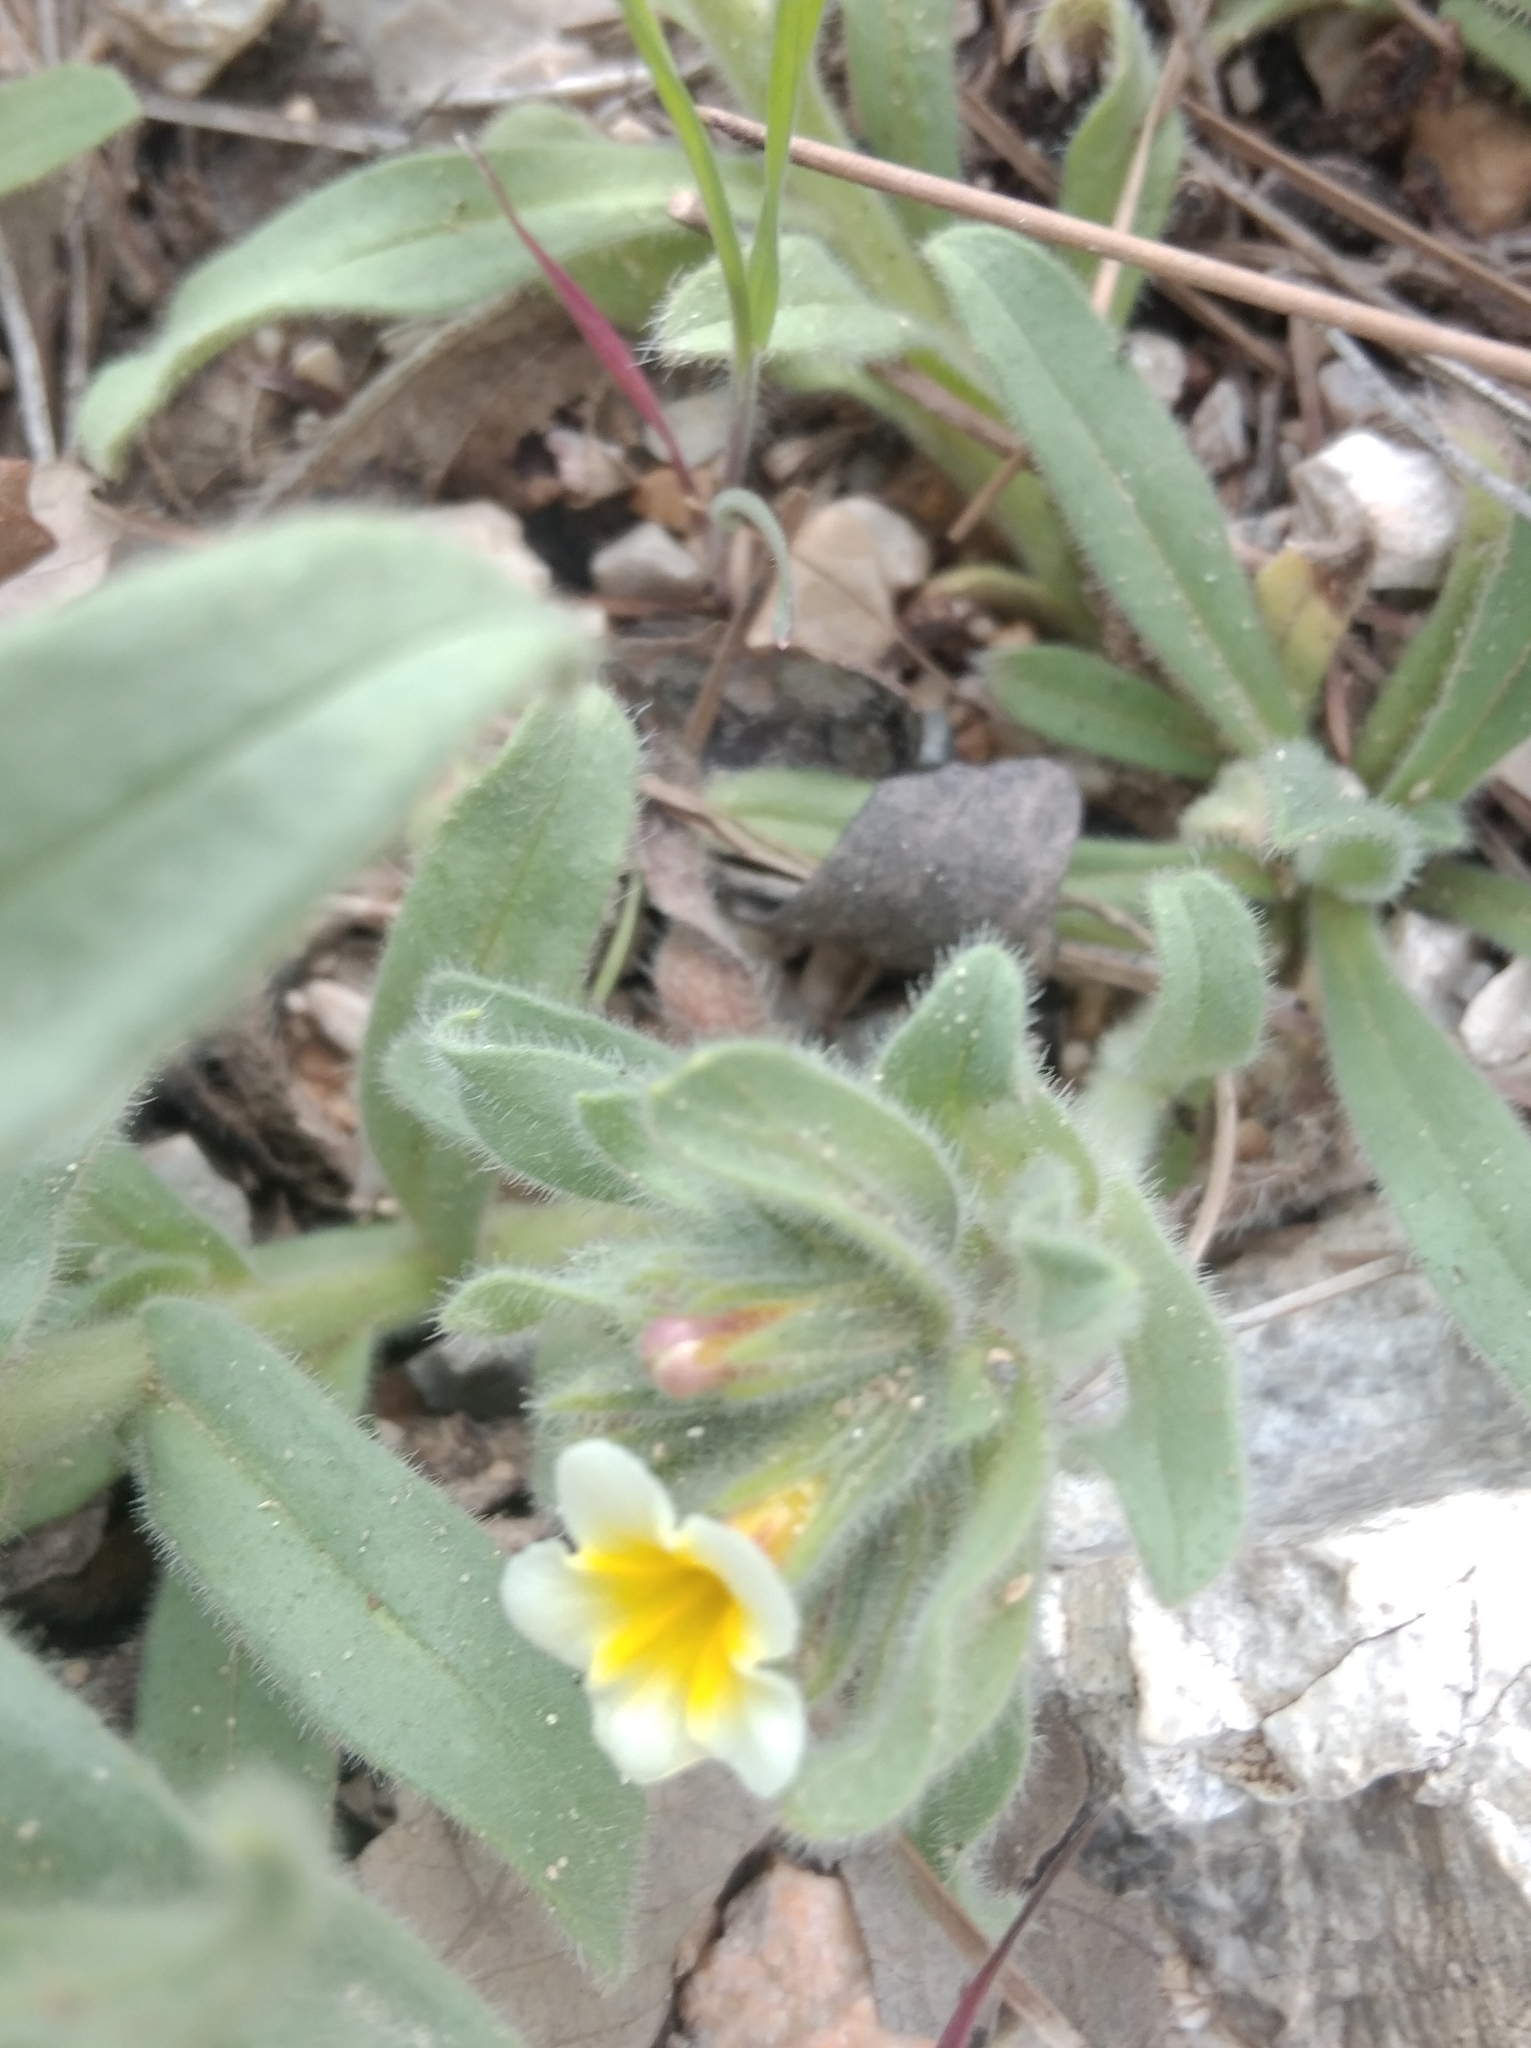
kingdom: Plantae
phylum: Tracheophyta
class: Magnoliopsida
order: Boraginales
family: Boraginaceae
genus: Alkanna
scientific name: Alkanna orientalis
